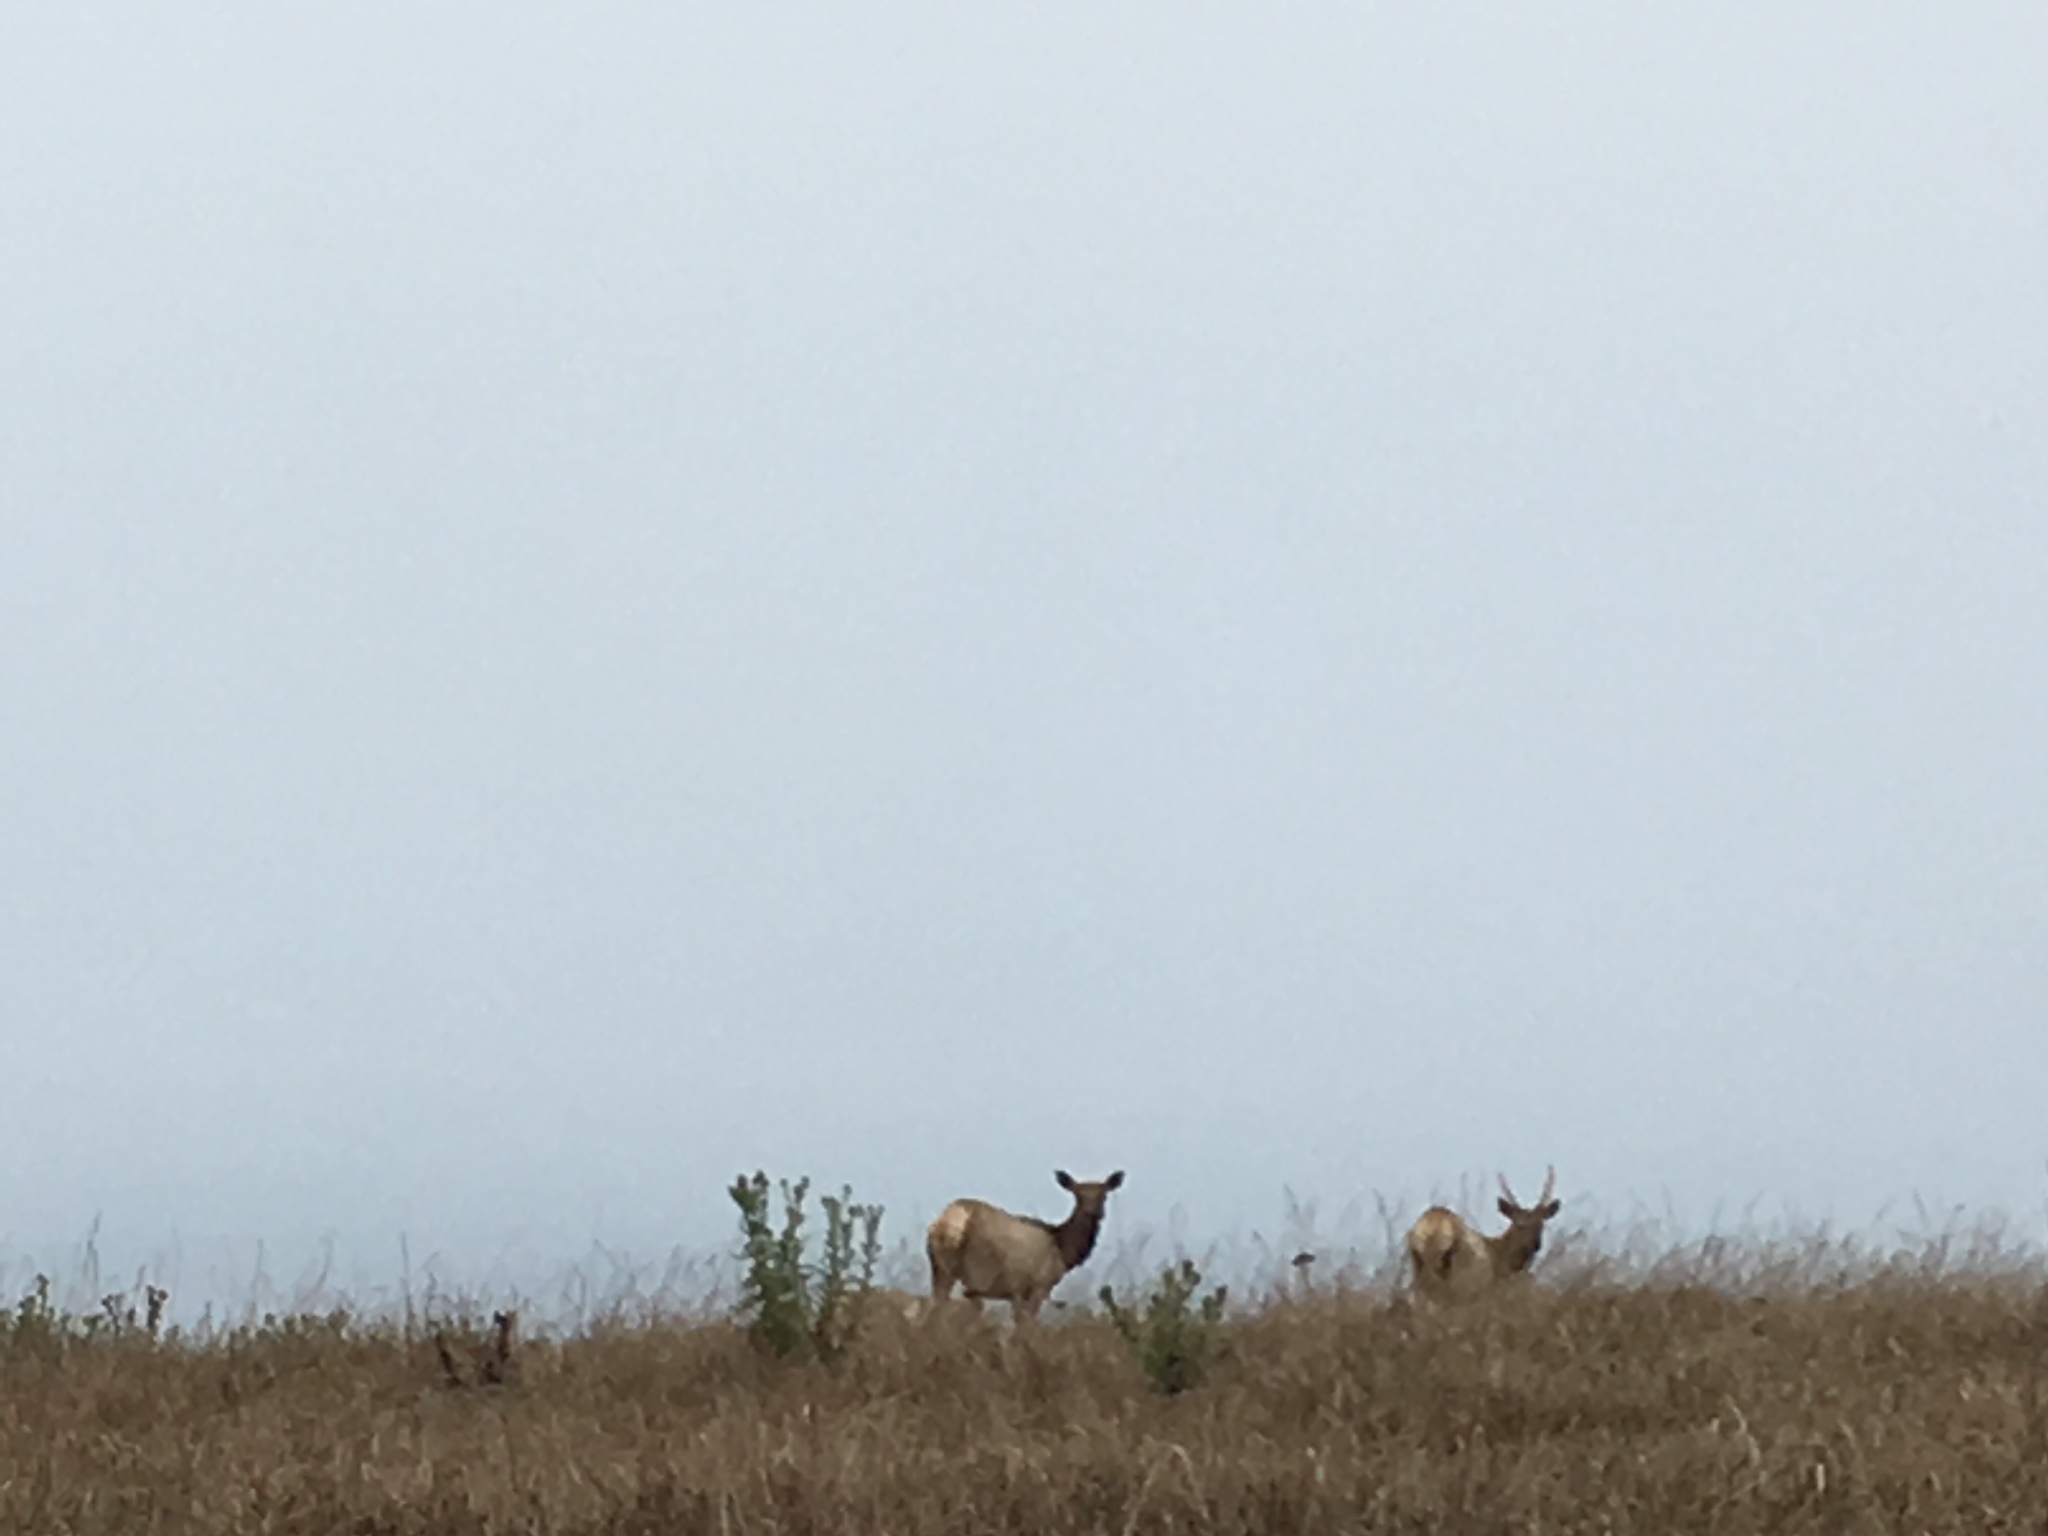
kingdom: Animalia
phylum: Chordata
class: Mammalia
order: Artiodactyla
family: Cervidae
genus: Cervus
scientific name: Cervus elaphus
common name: Red deer
